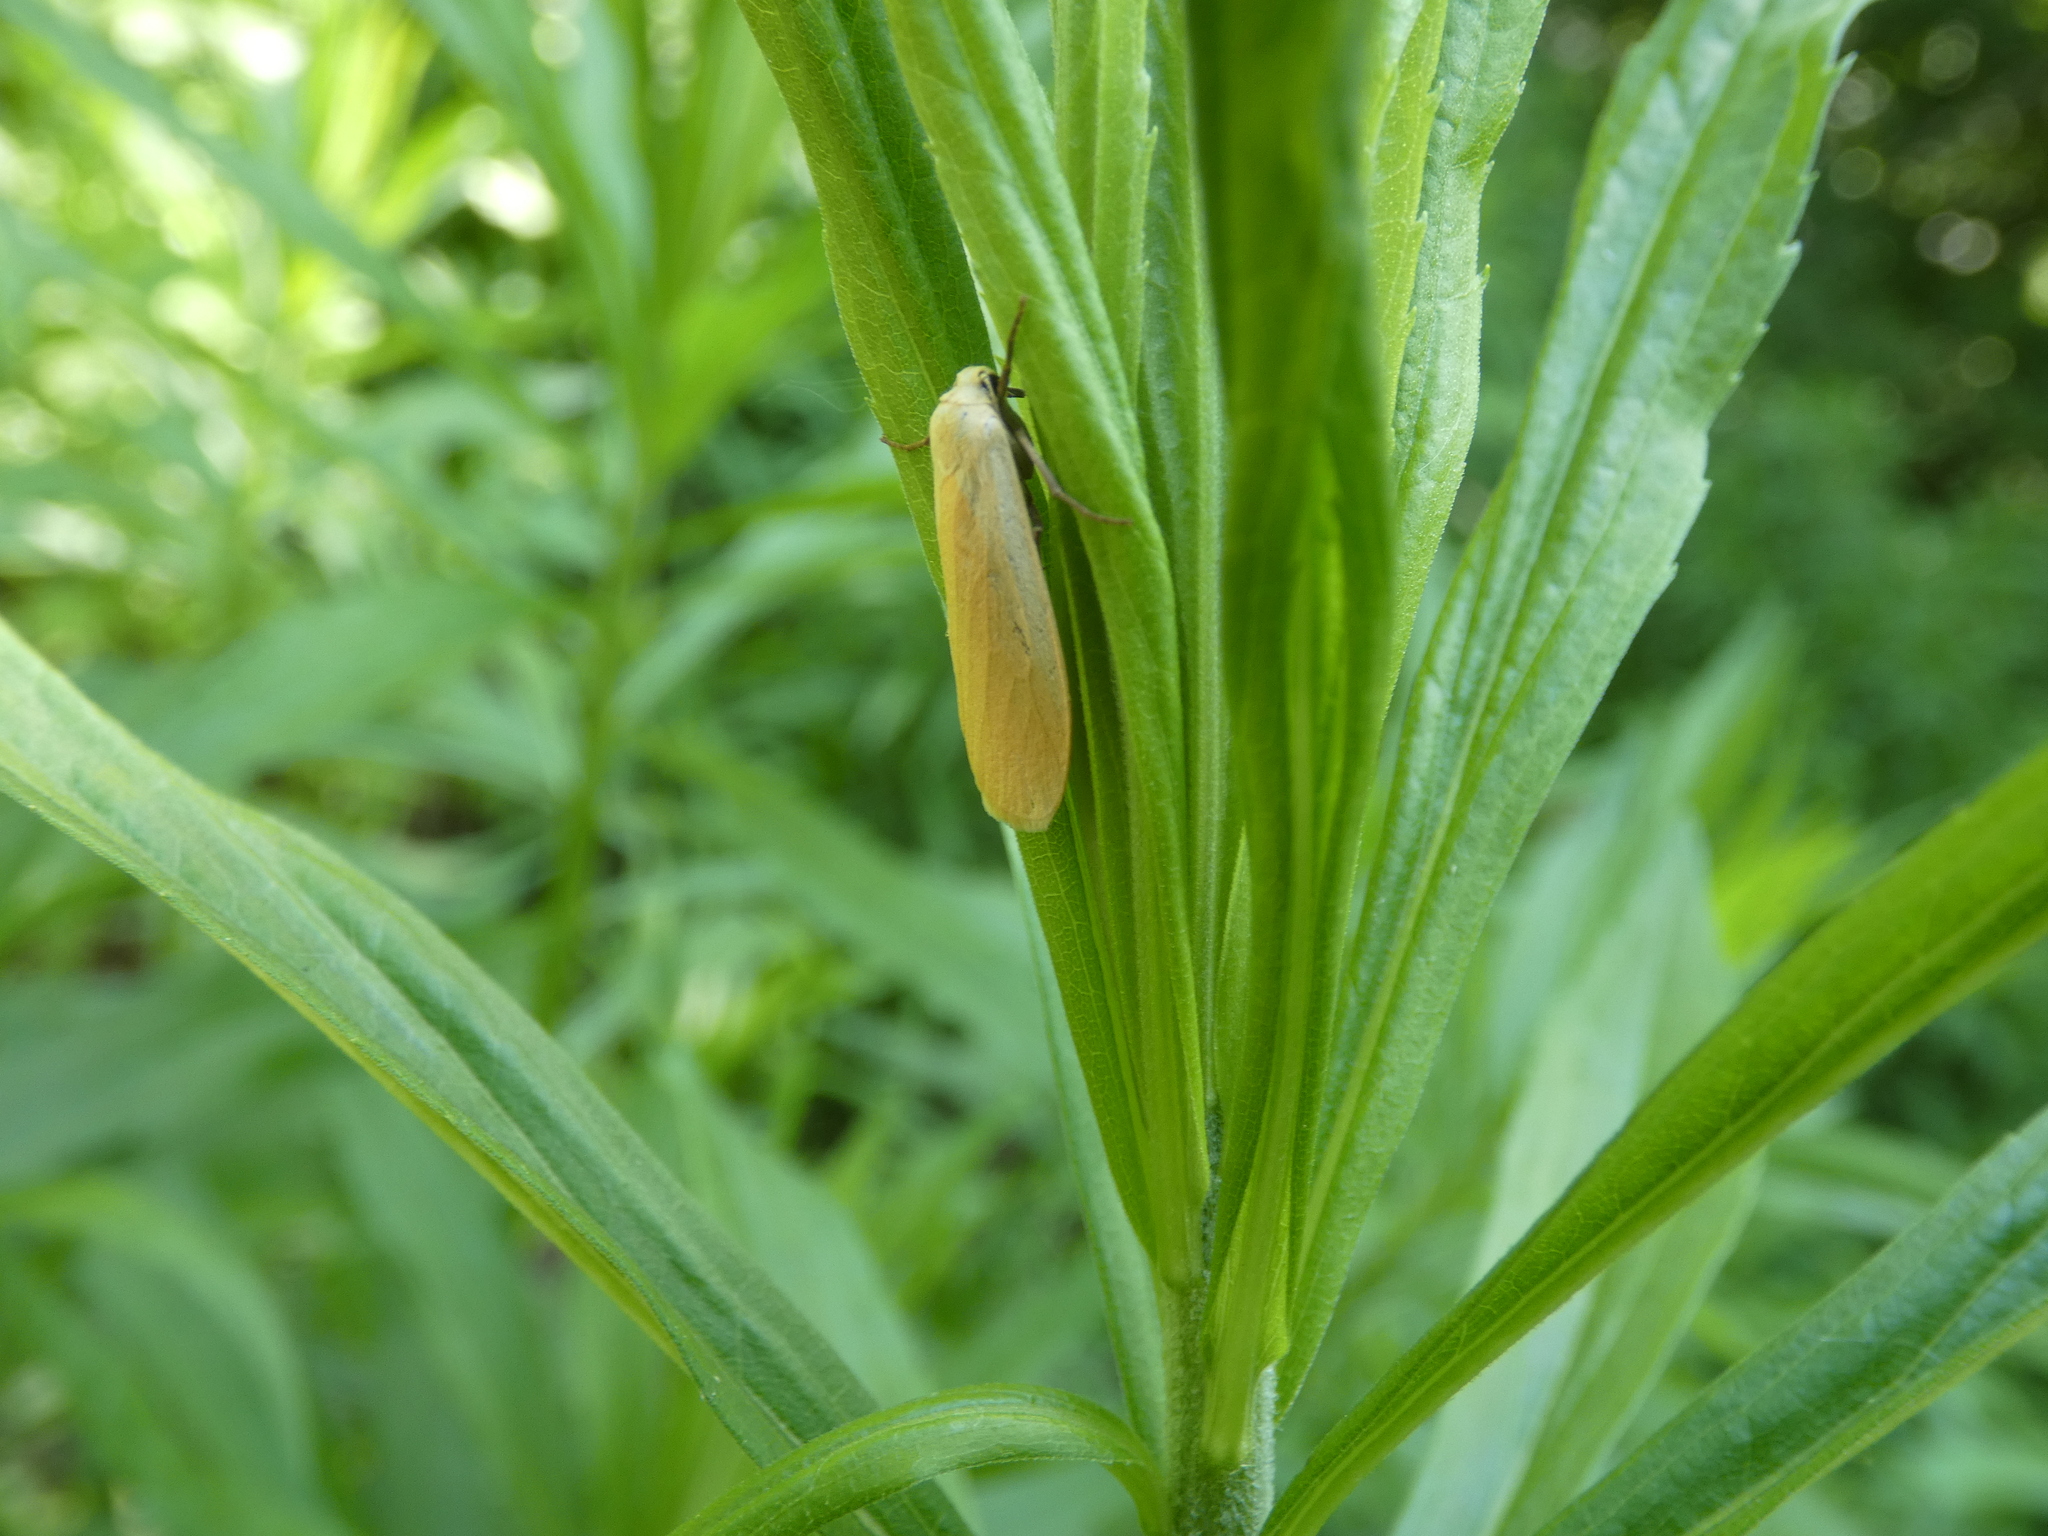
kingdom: Animalia
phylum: Arthropoda
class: Insecta
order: Lepidoptera
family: Erebidae
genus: Wittia
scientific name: Wittia sororcula
